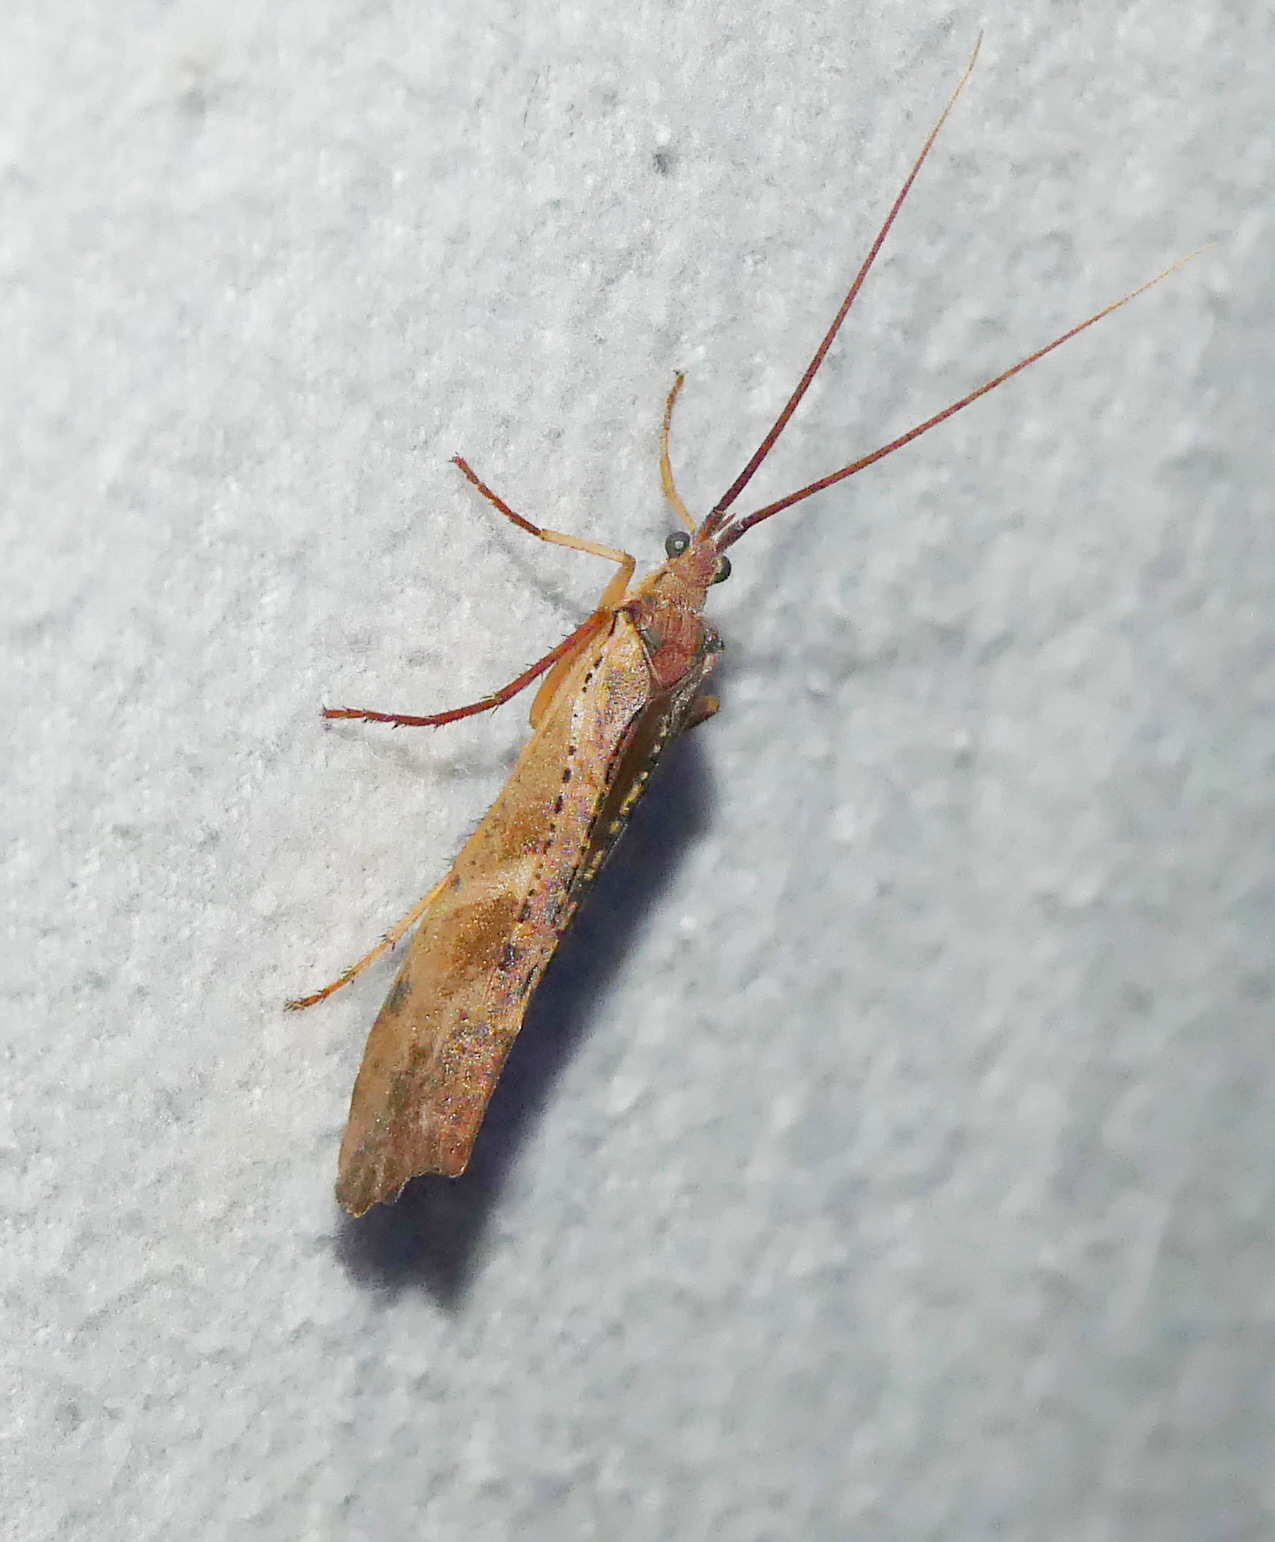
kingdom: Animalia
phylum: Arthropoda
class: Insecta
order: Trichoptera
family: Limnephilidae
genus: Nemotaulius
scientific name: Nemotaulius hostilis
